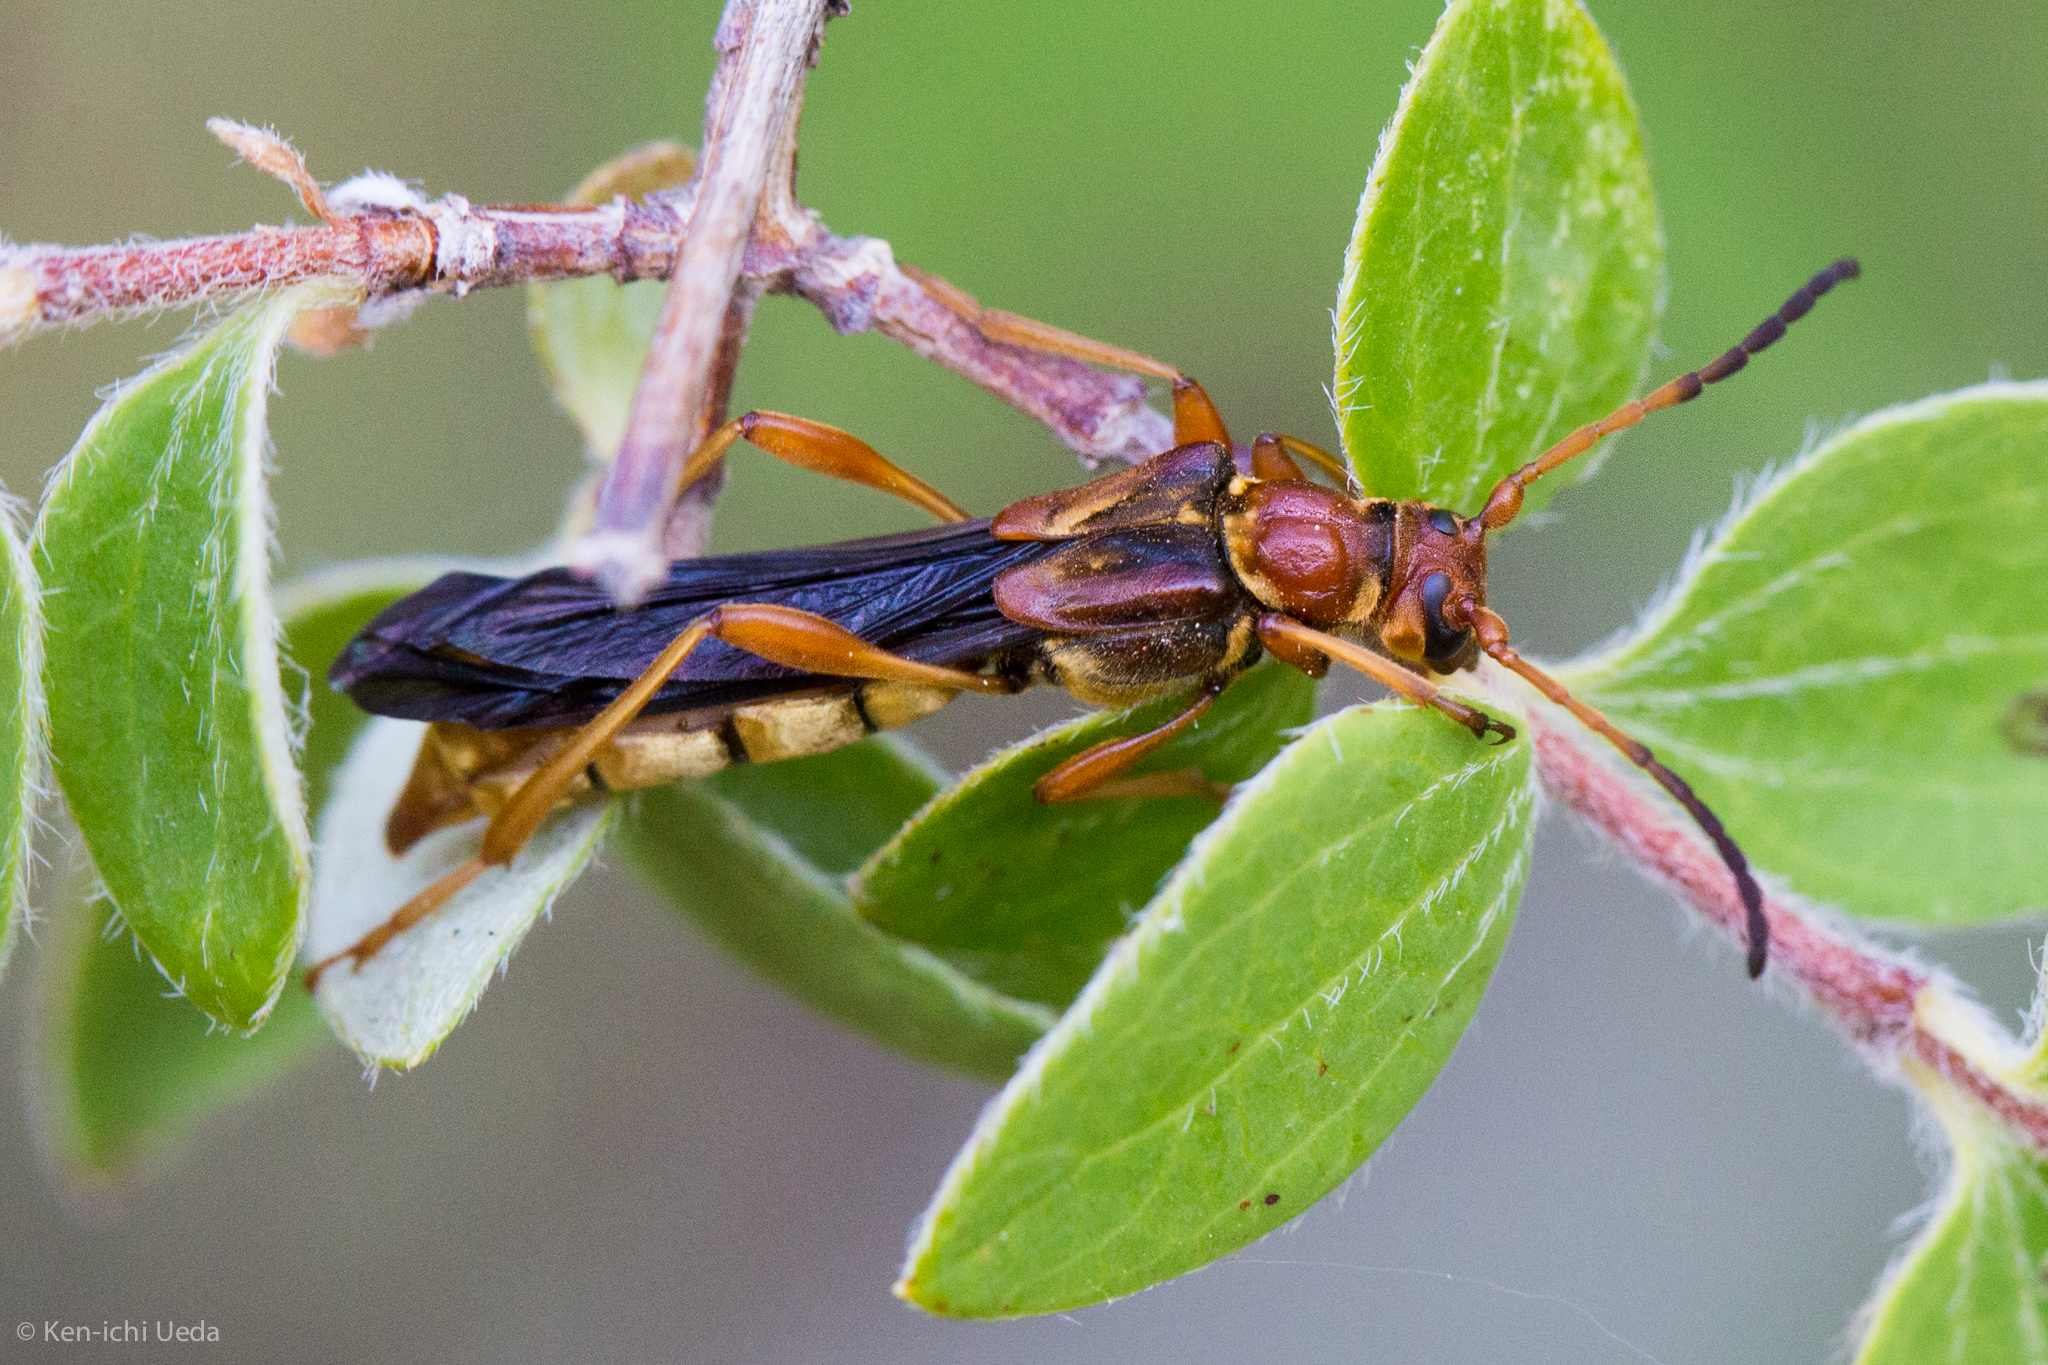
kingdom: Animalia
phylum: Arthropoda
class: Insecta
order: Coleoptera
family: Cerambycidae
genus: Necydalis
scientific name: Necydalis cavipennis
